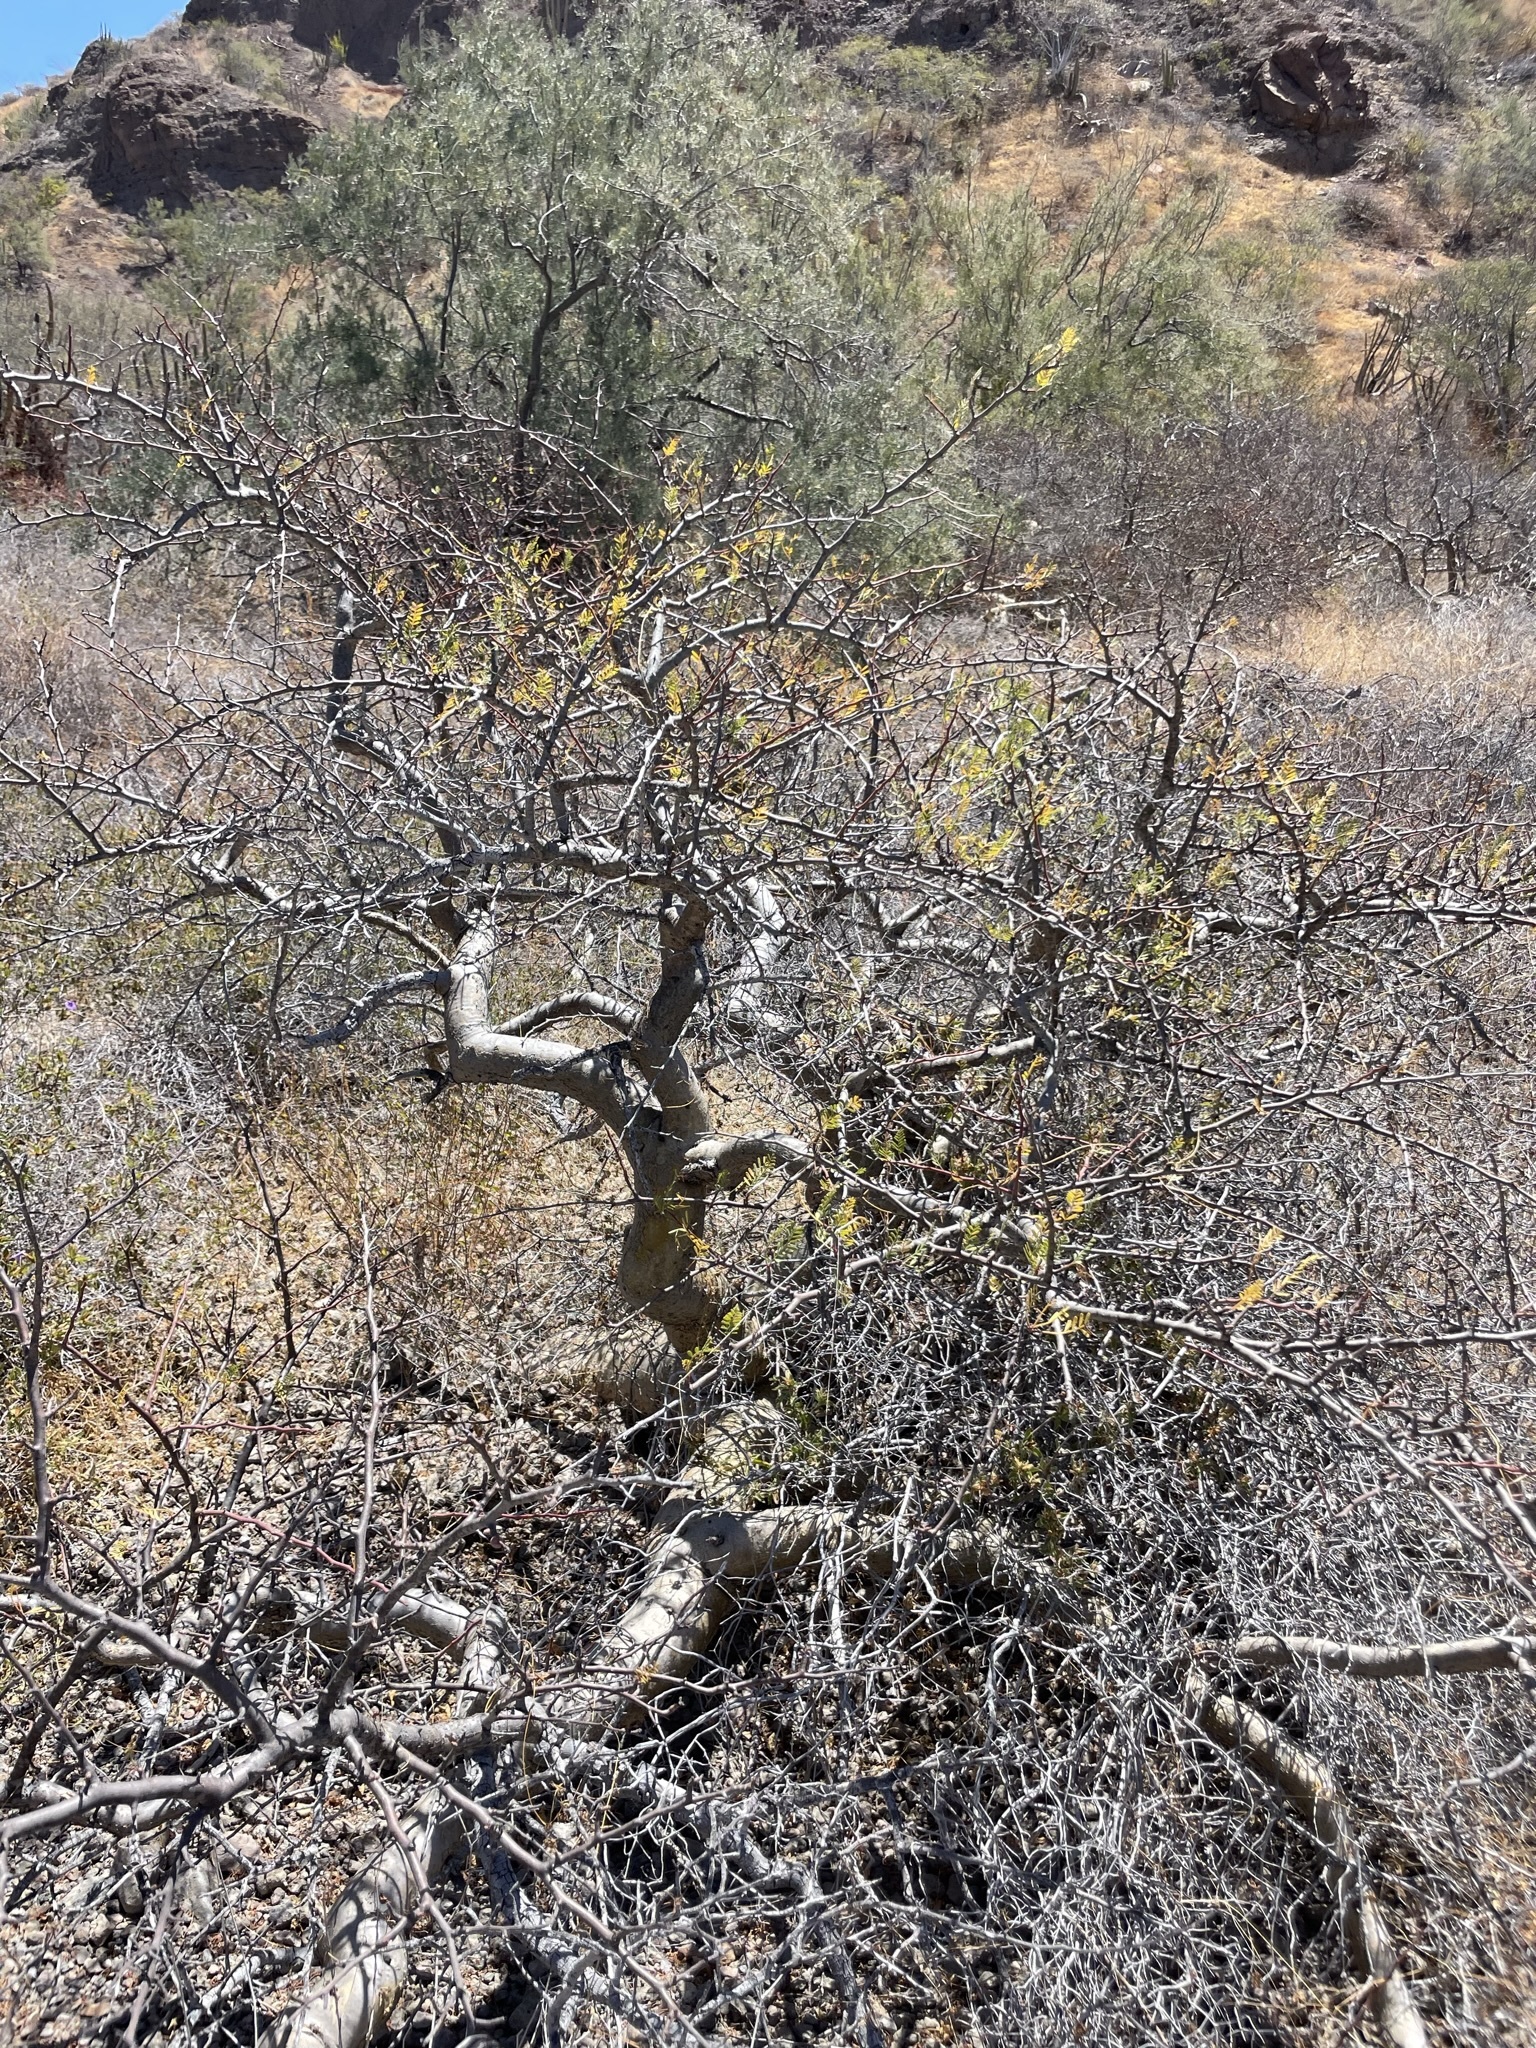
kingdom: Plantae
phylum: Tracheophyta
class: Magnoliopsida
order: Sapindales
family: Burseraceae
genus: Bursera
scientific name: Bursera microphylla
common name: Elephant tree
